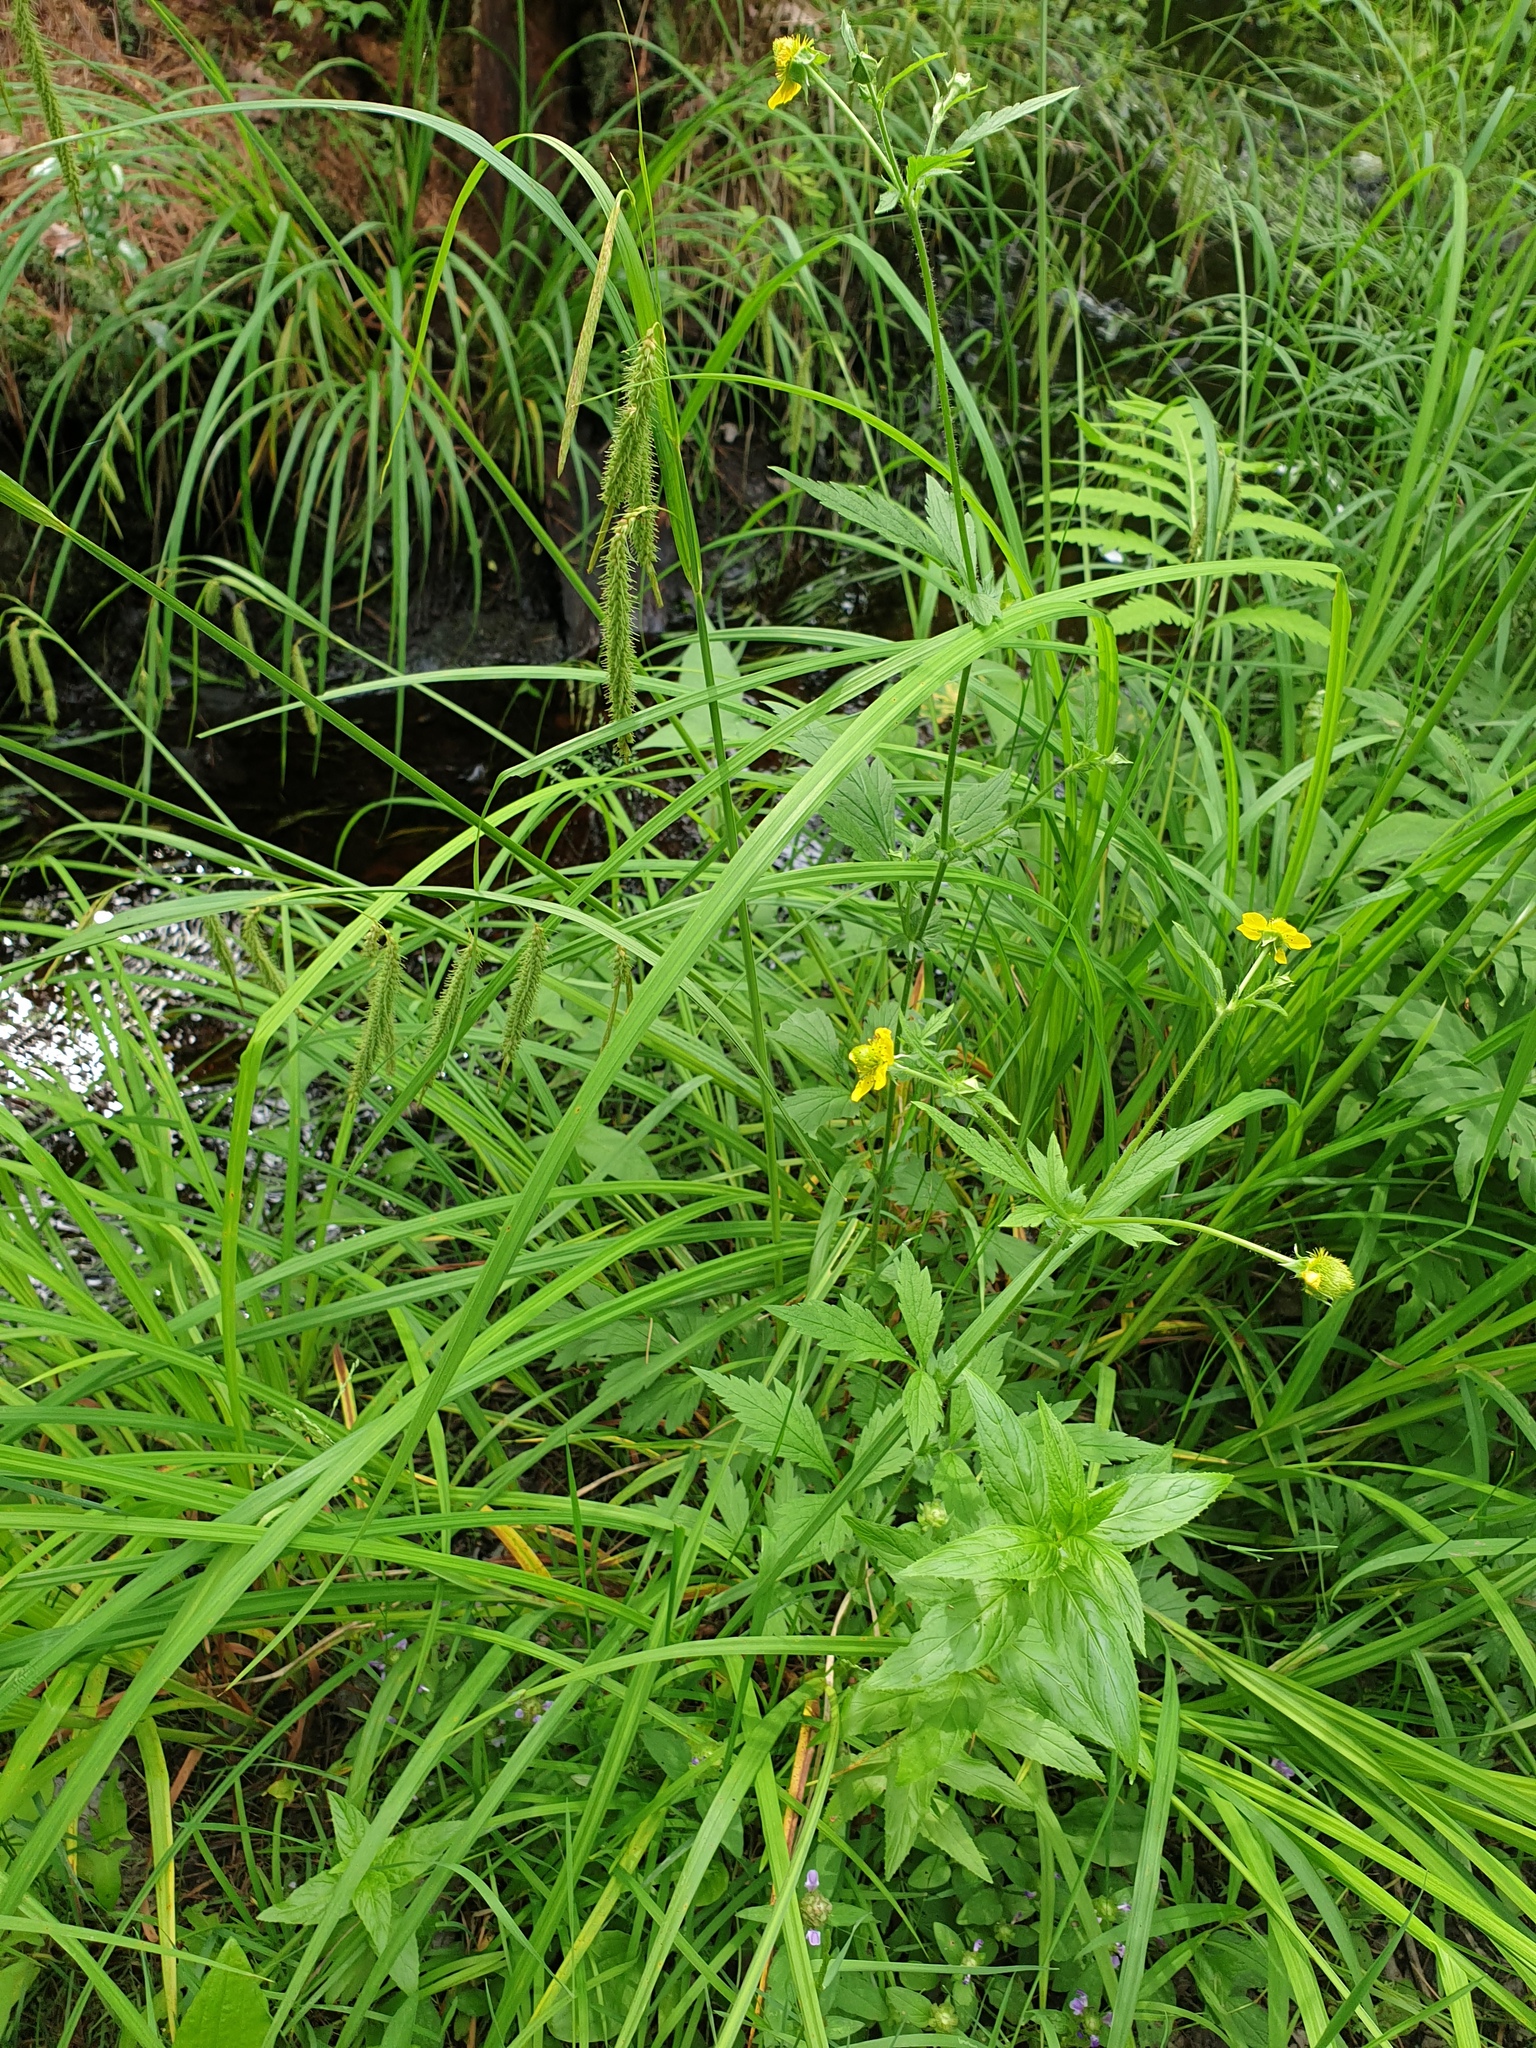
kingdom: Plantae
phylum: Tracheophyta
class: Polypodiopsida
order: Polypodiales
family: Onocleaceae
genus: Onoclea
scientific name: Onoclea sensibilis
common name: Sensitive fern
